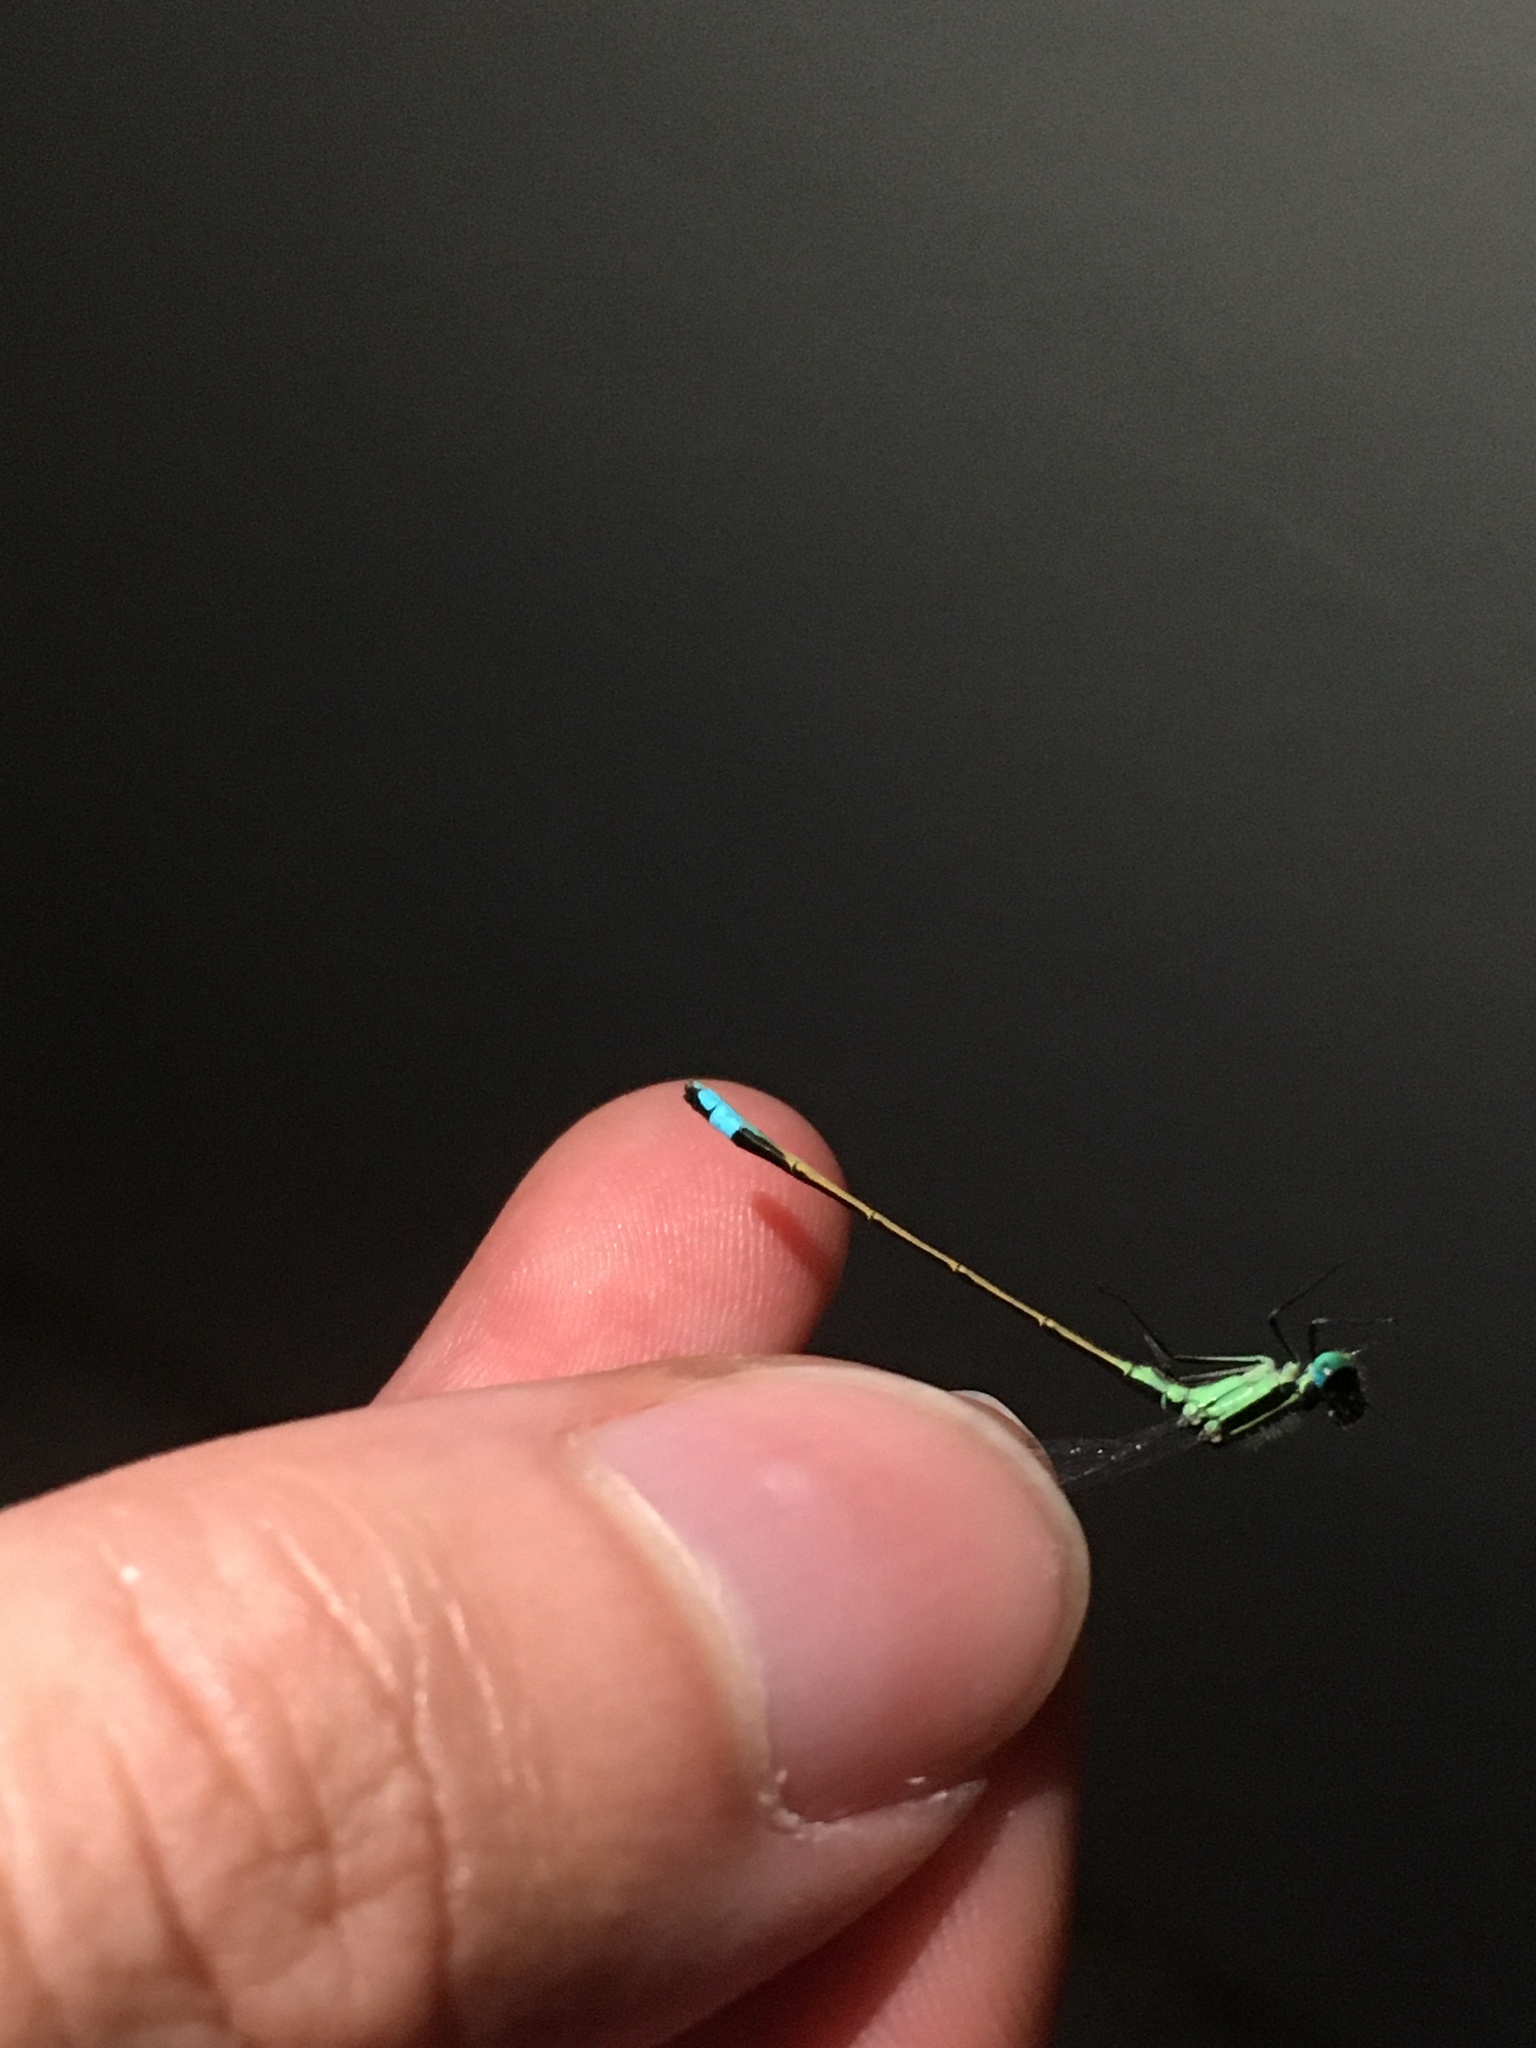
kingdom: Animalia
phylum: Arthropoda
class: Insecta
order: Odonata
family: Coenagrionidae
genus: Ischnura
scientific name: Ischnura ramburii
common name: Rambur's forktail
